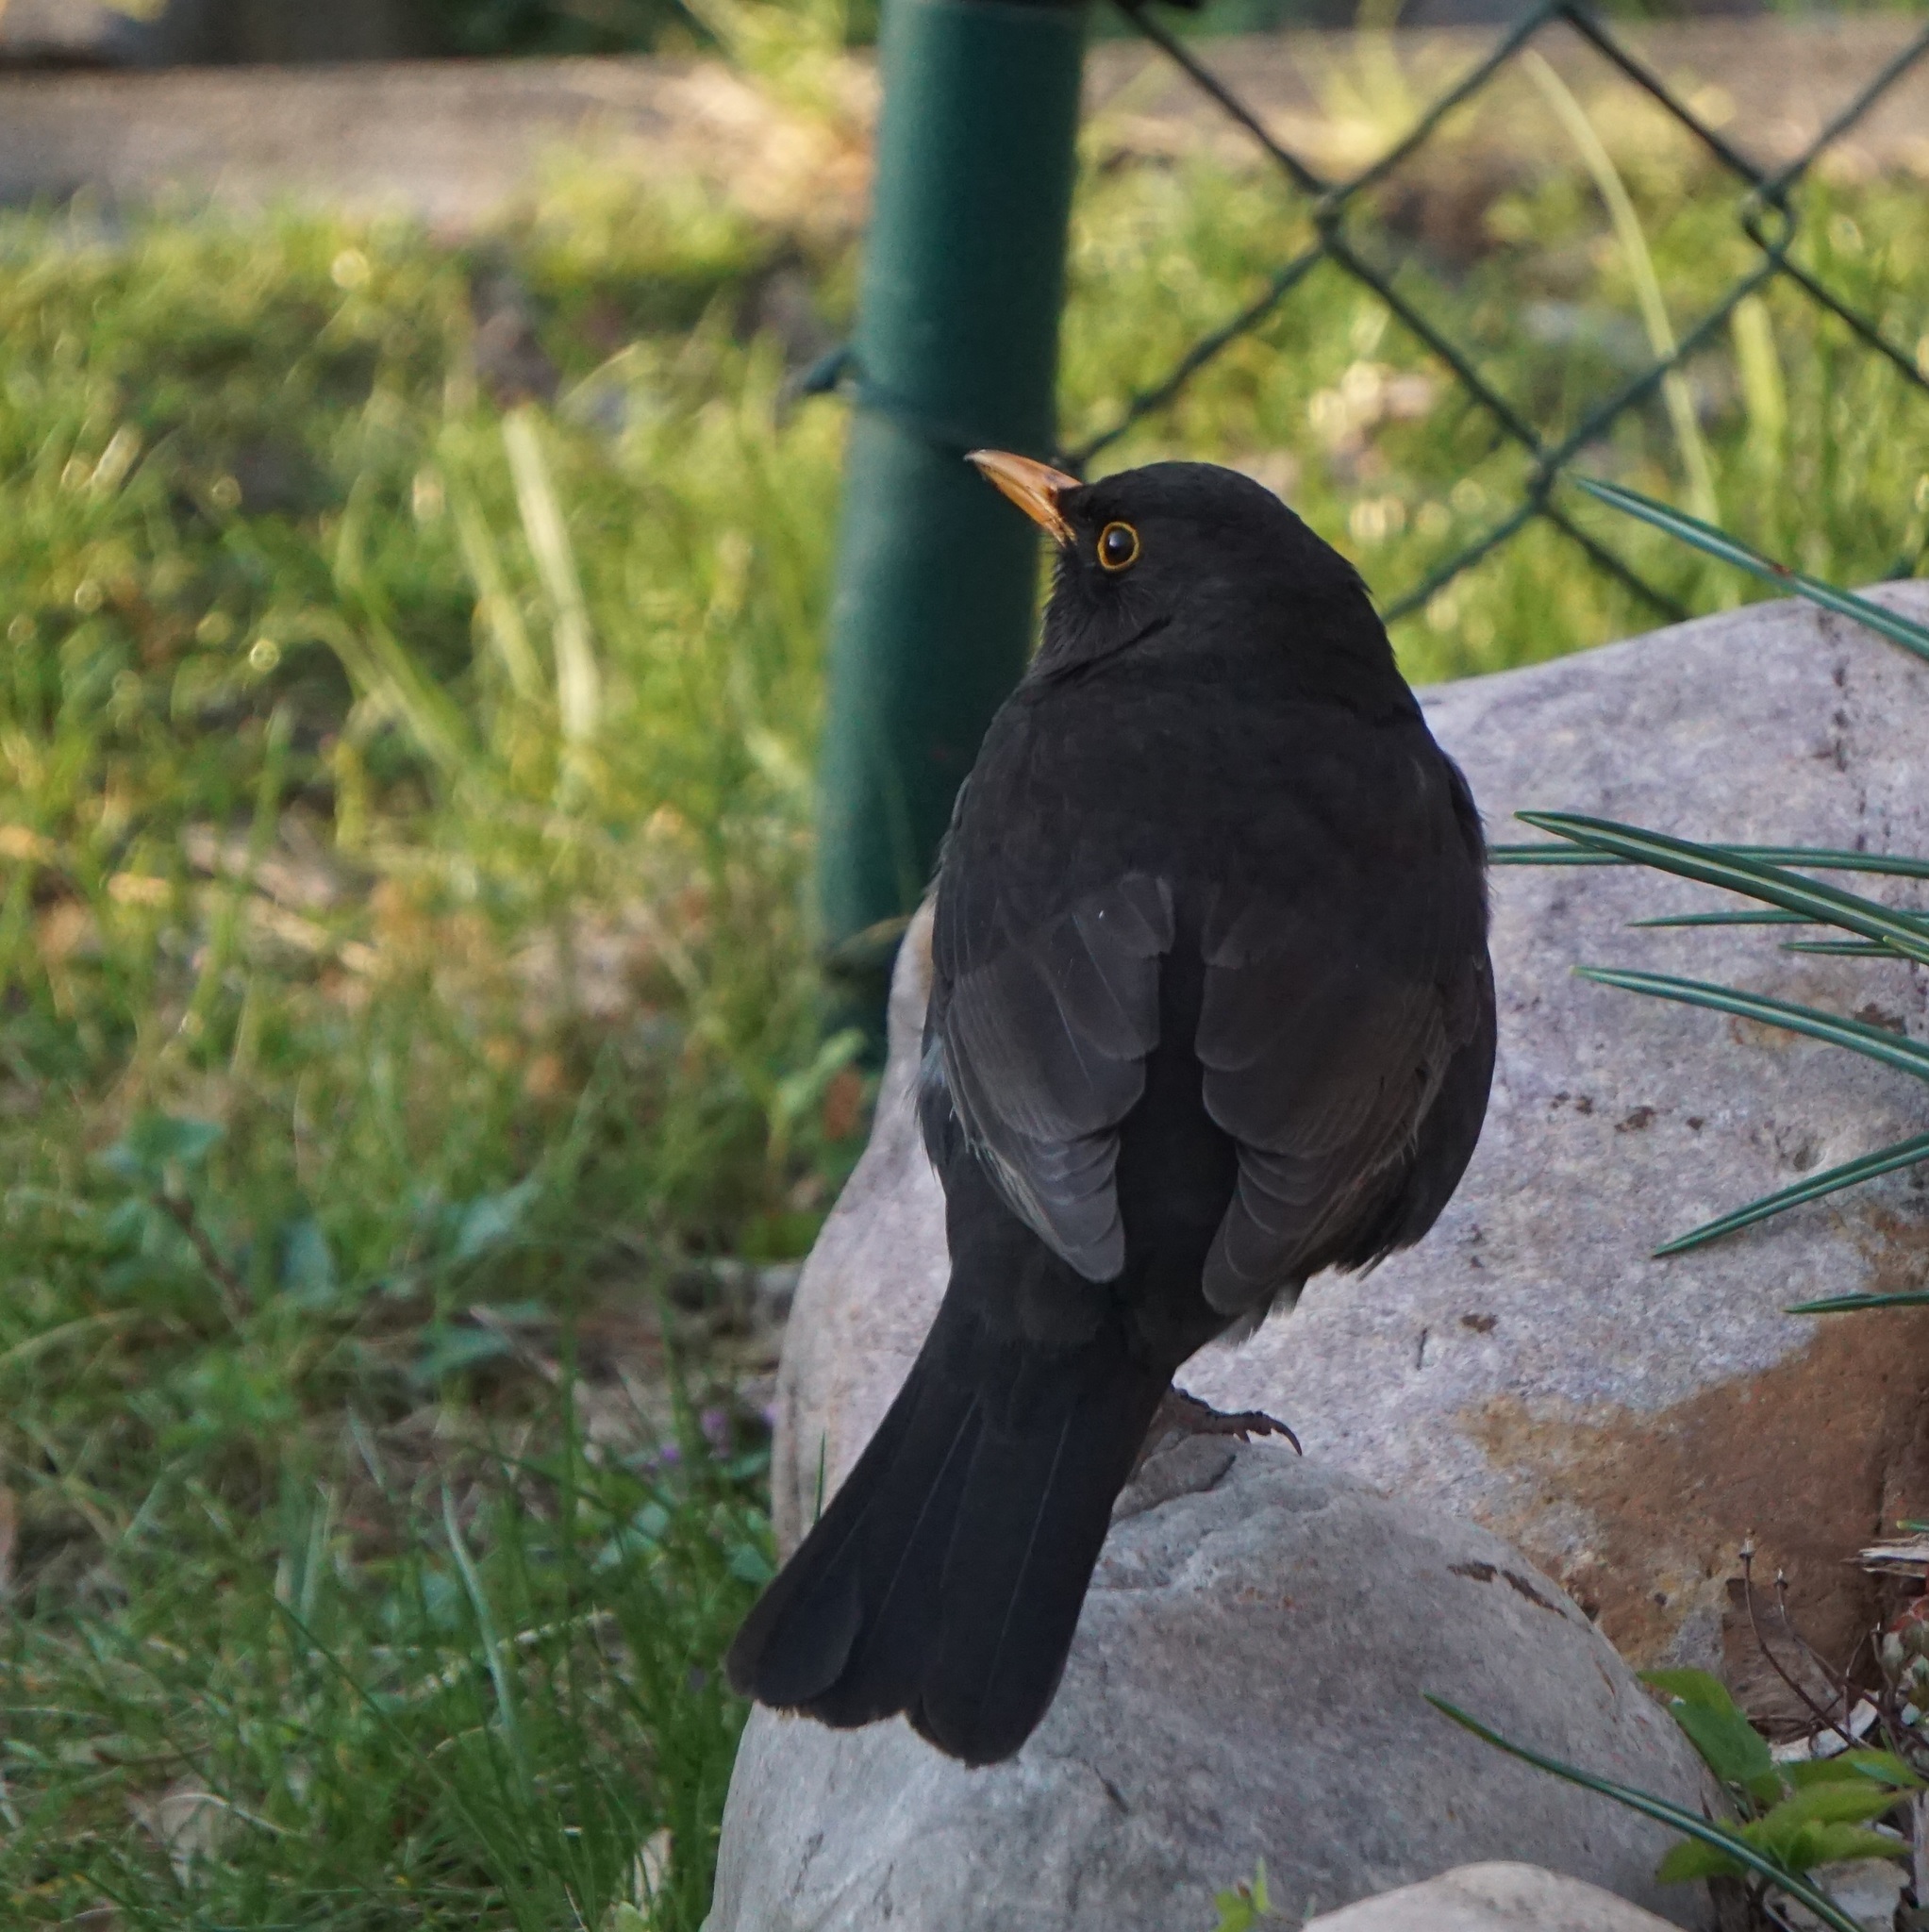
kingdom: Animalia
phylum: Chordata
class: Aves
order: Passeriformes
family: Turdidae
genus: Turdus
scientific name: Turdus merula
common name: Common blackbird
